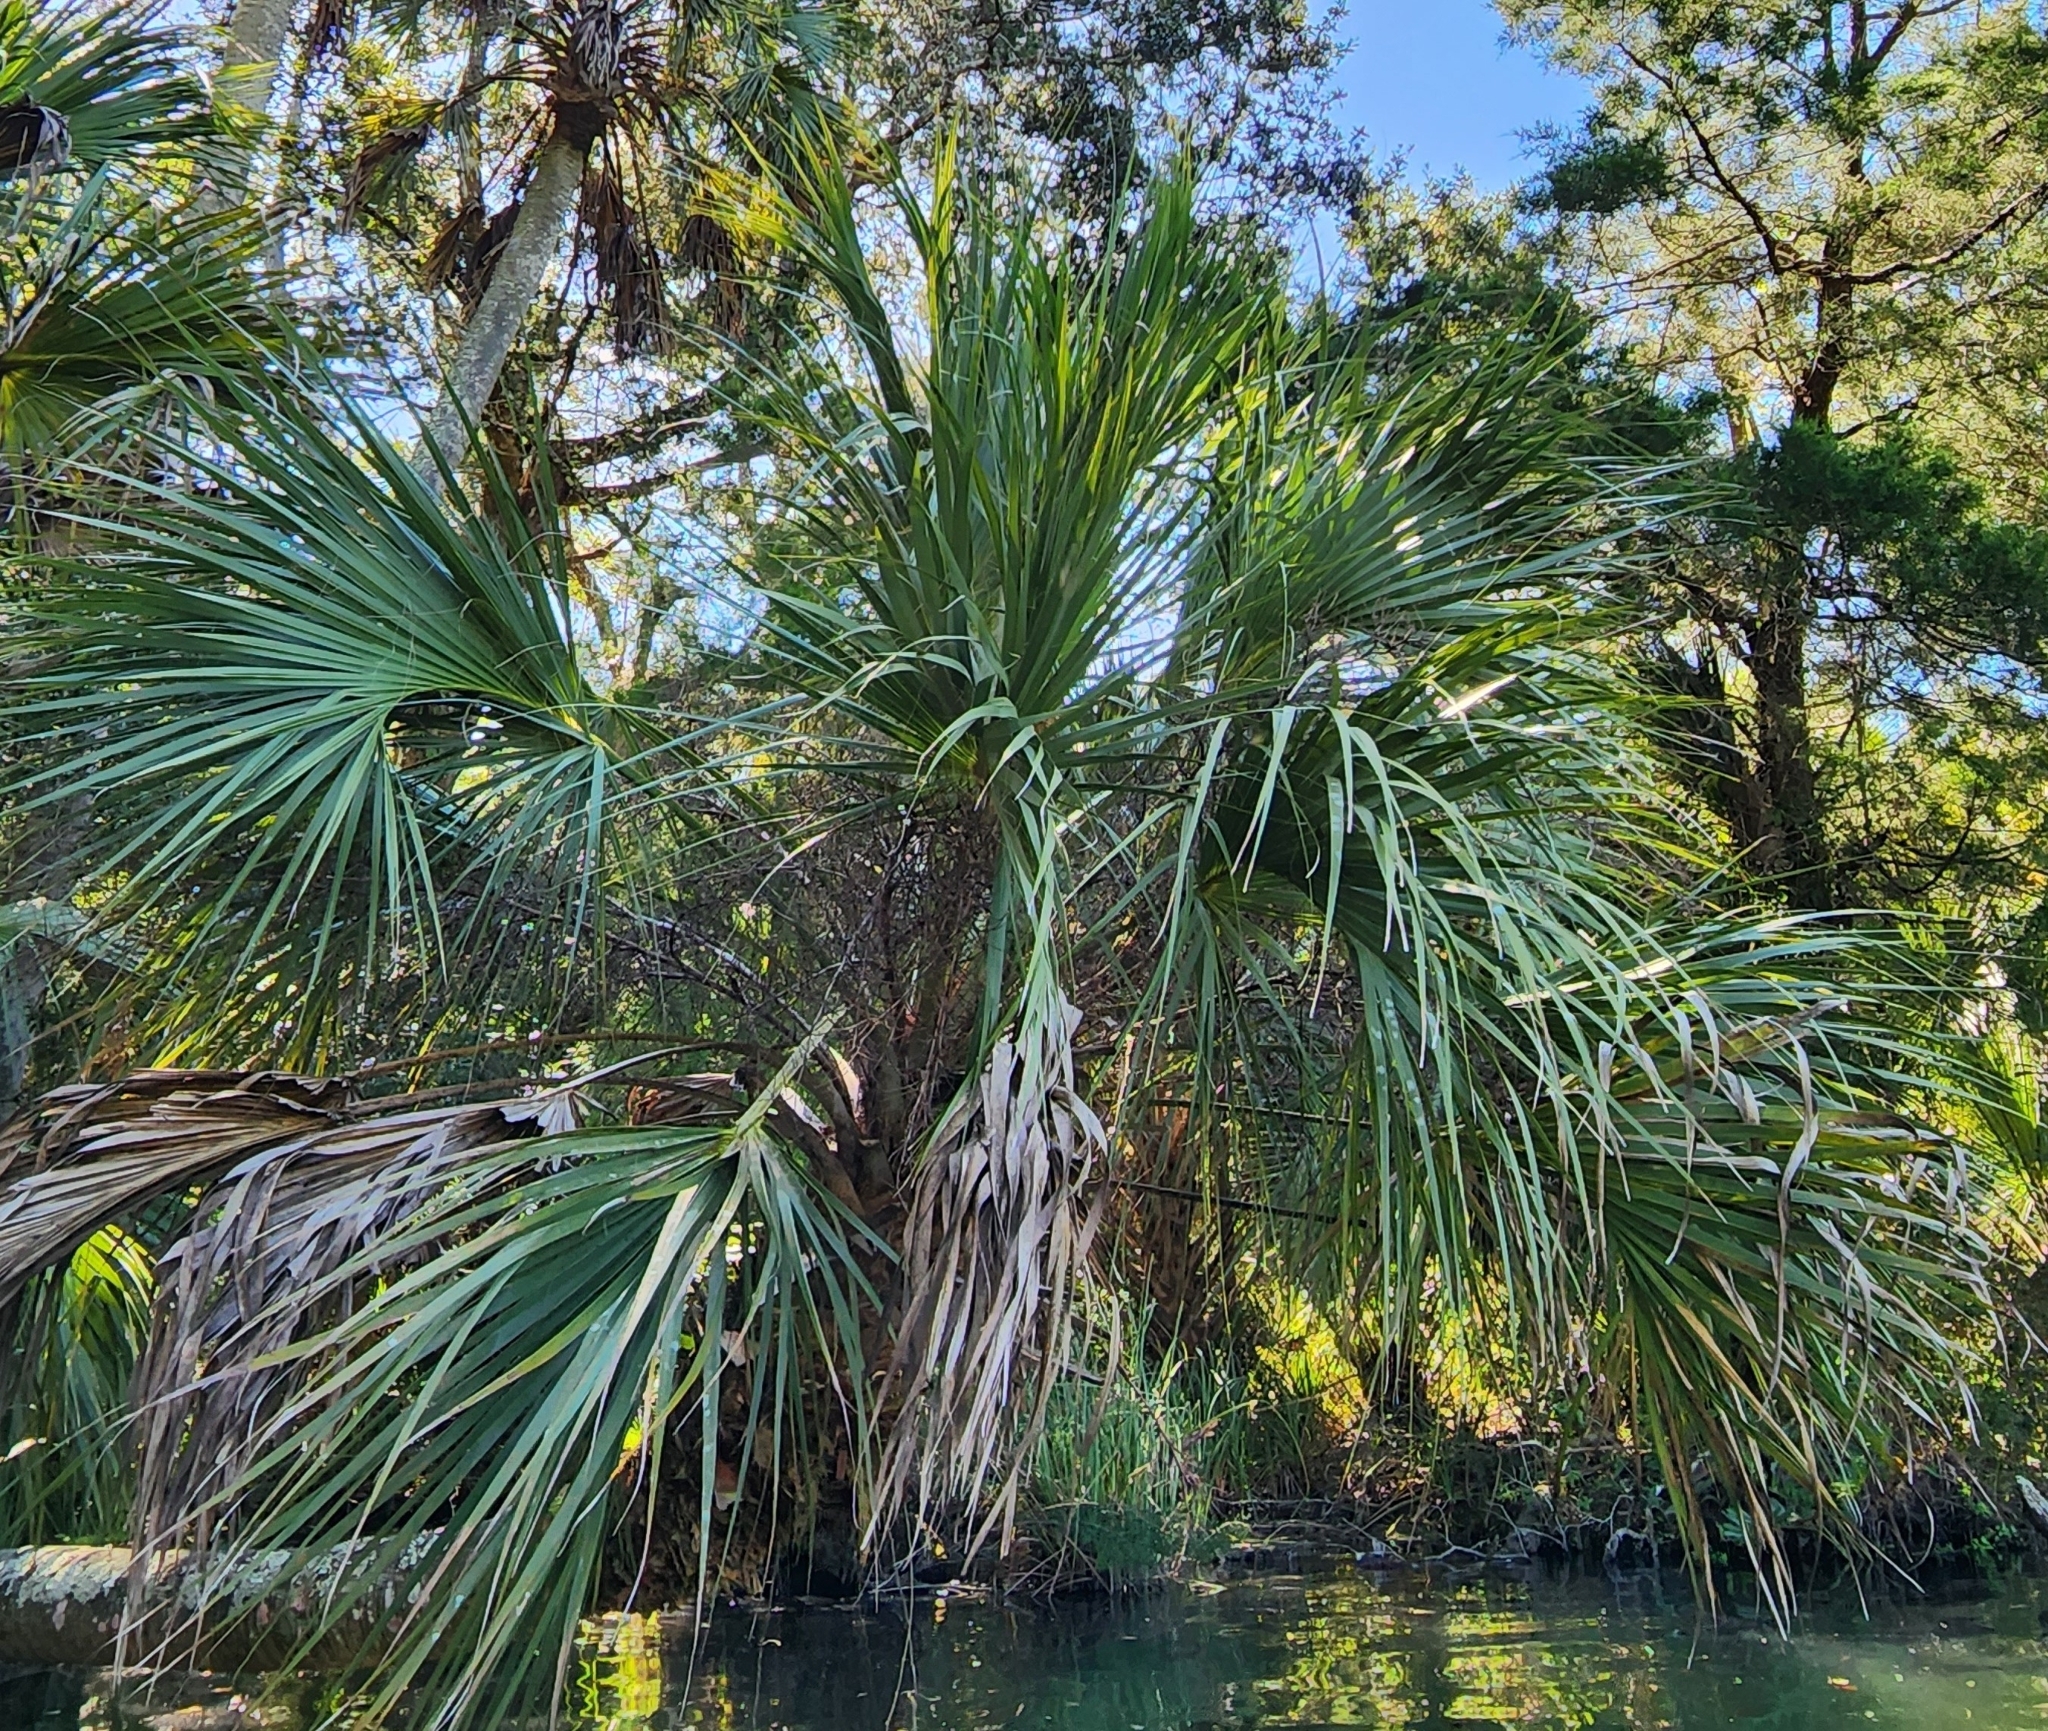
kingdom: Plantae
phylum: Tracheophyta
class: Liliopsida
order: Arecales
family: Arecaceae
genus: Sabal
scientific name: Sabal palmetto
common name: Blue palmetto
